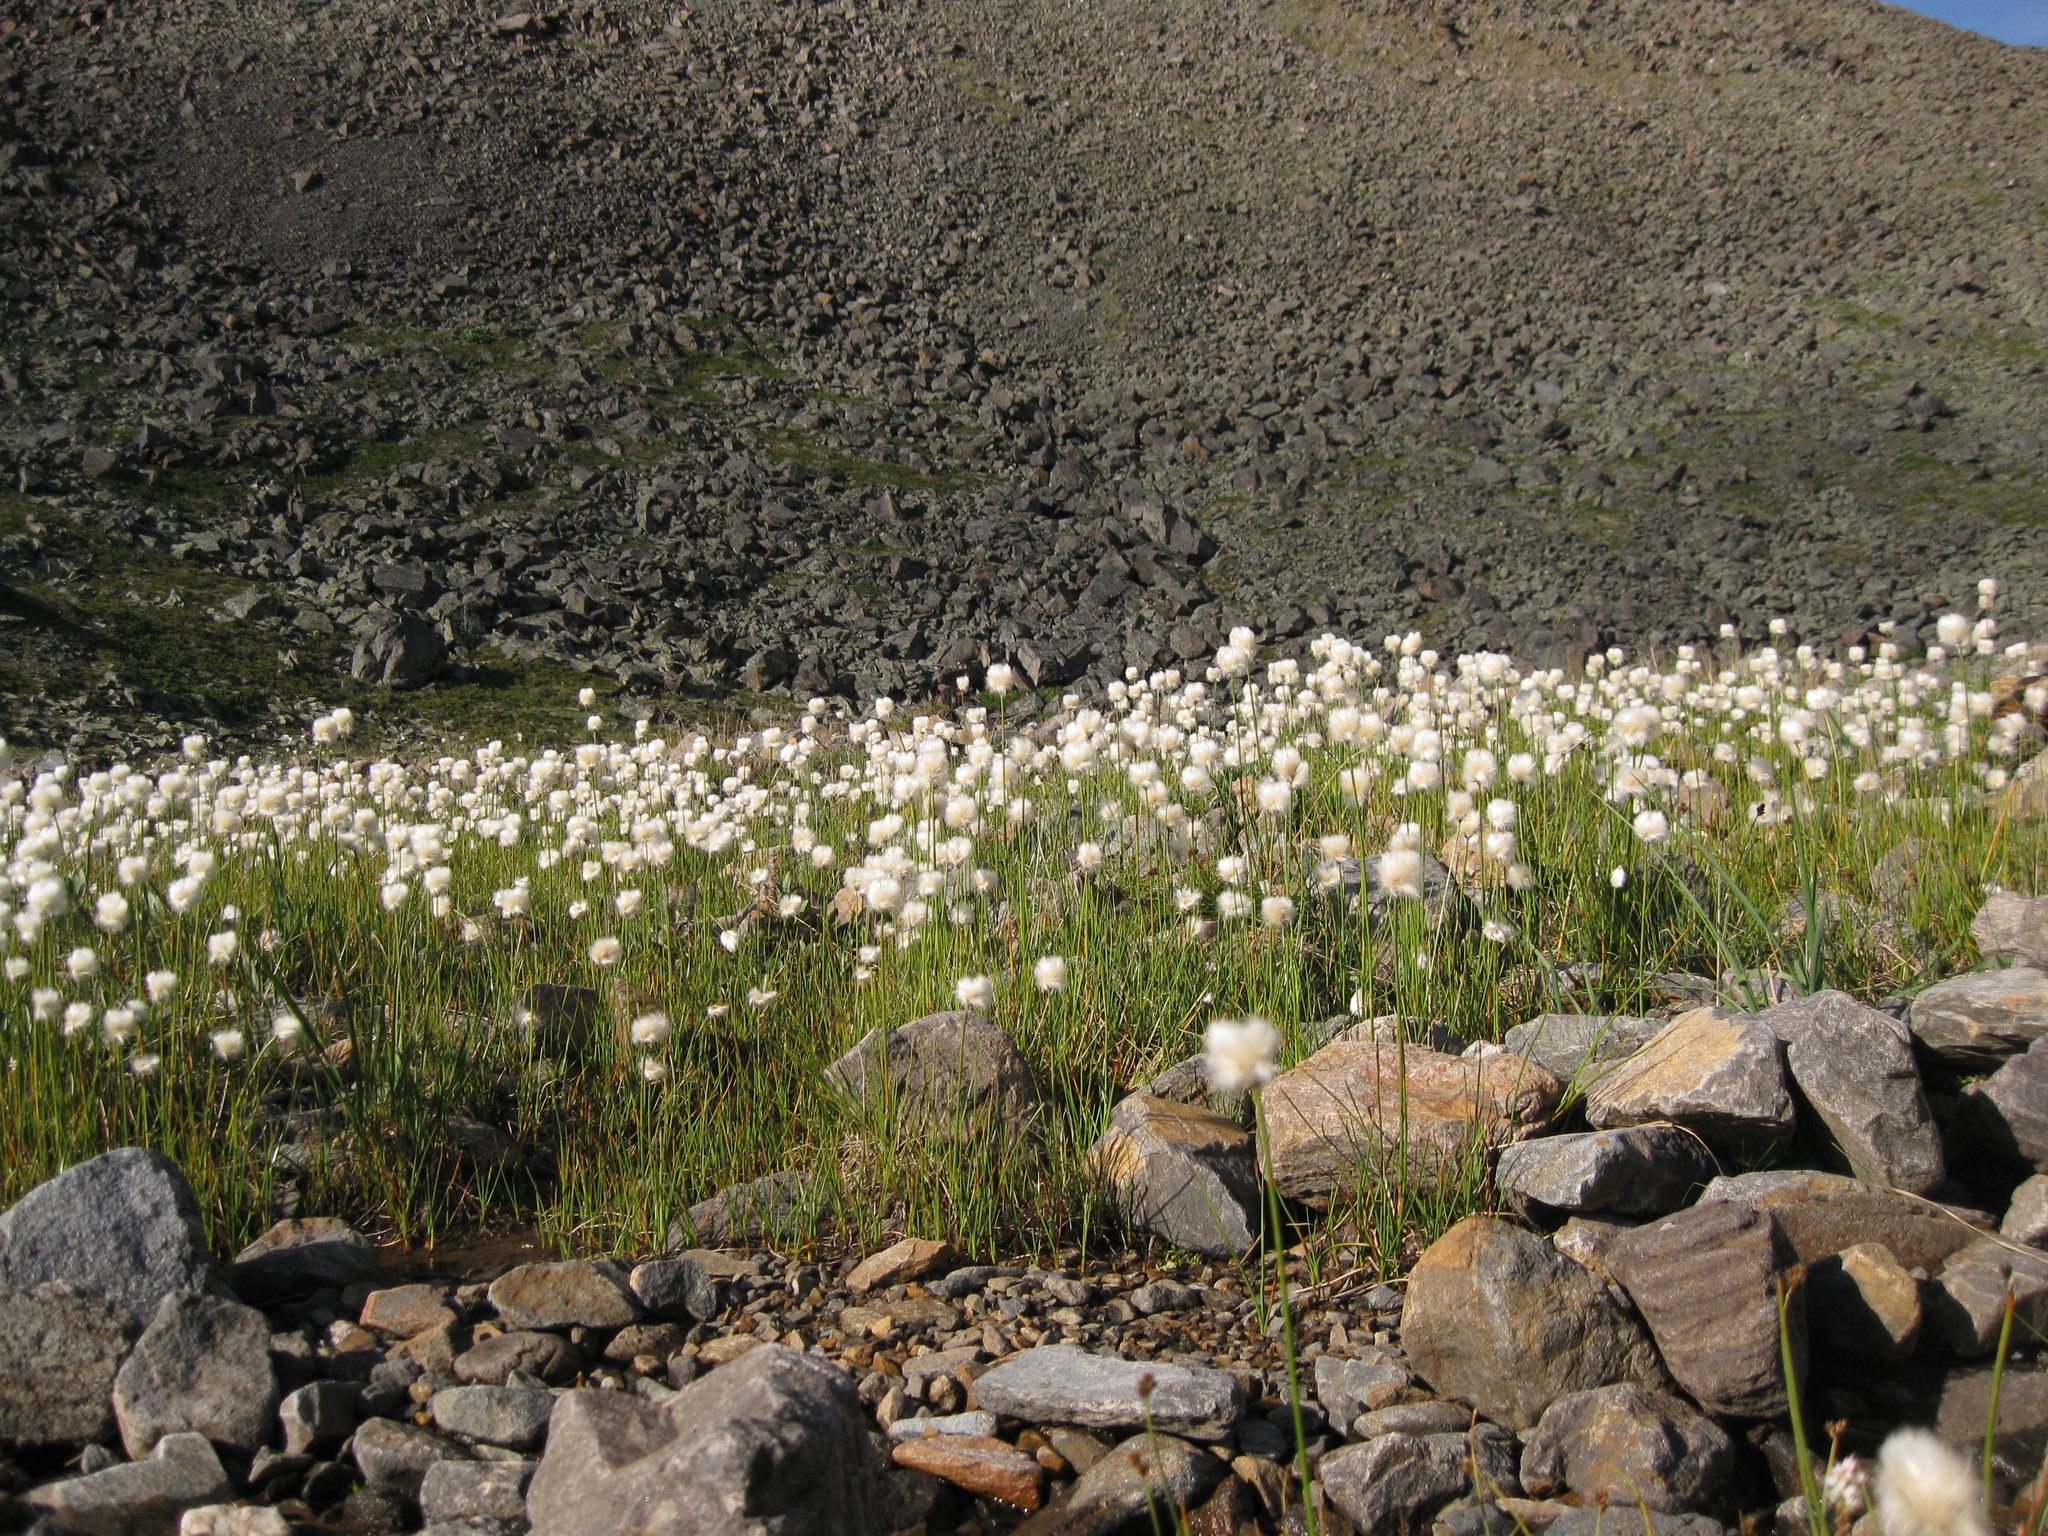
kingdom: Plantae
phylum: Tracheophyta
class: Liliopsida
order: Poales
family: Cyperaceae
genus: Eriophorum
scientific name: Eriophorum scheuchzeri
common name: Scheuchzer's cottongrass
